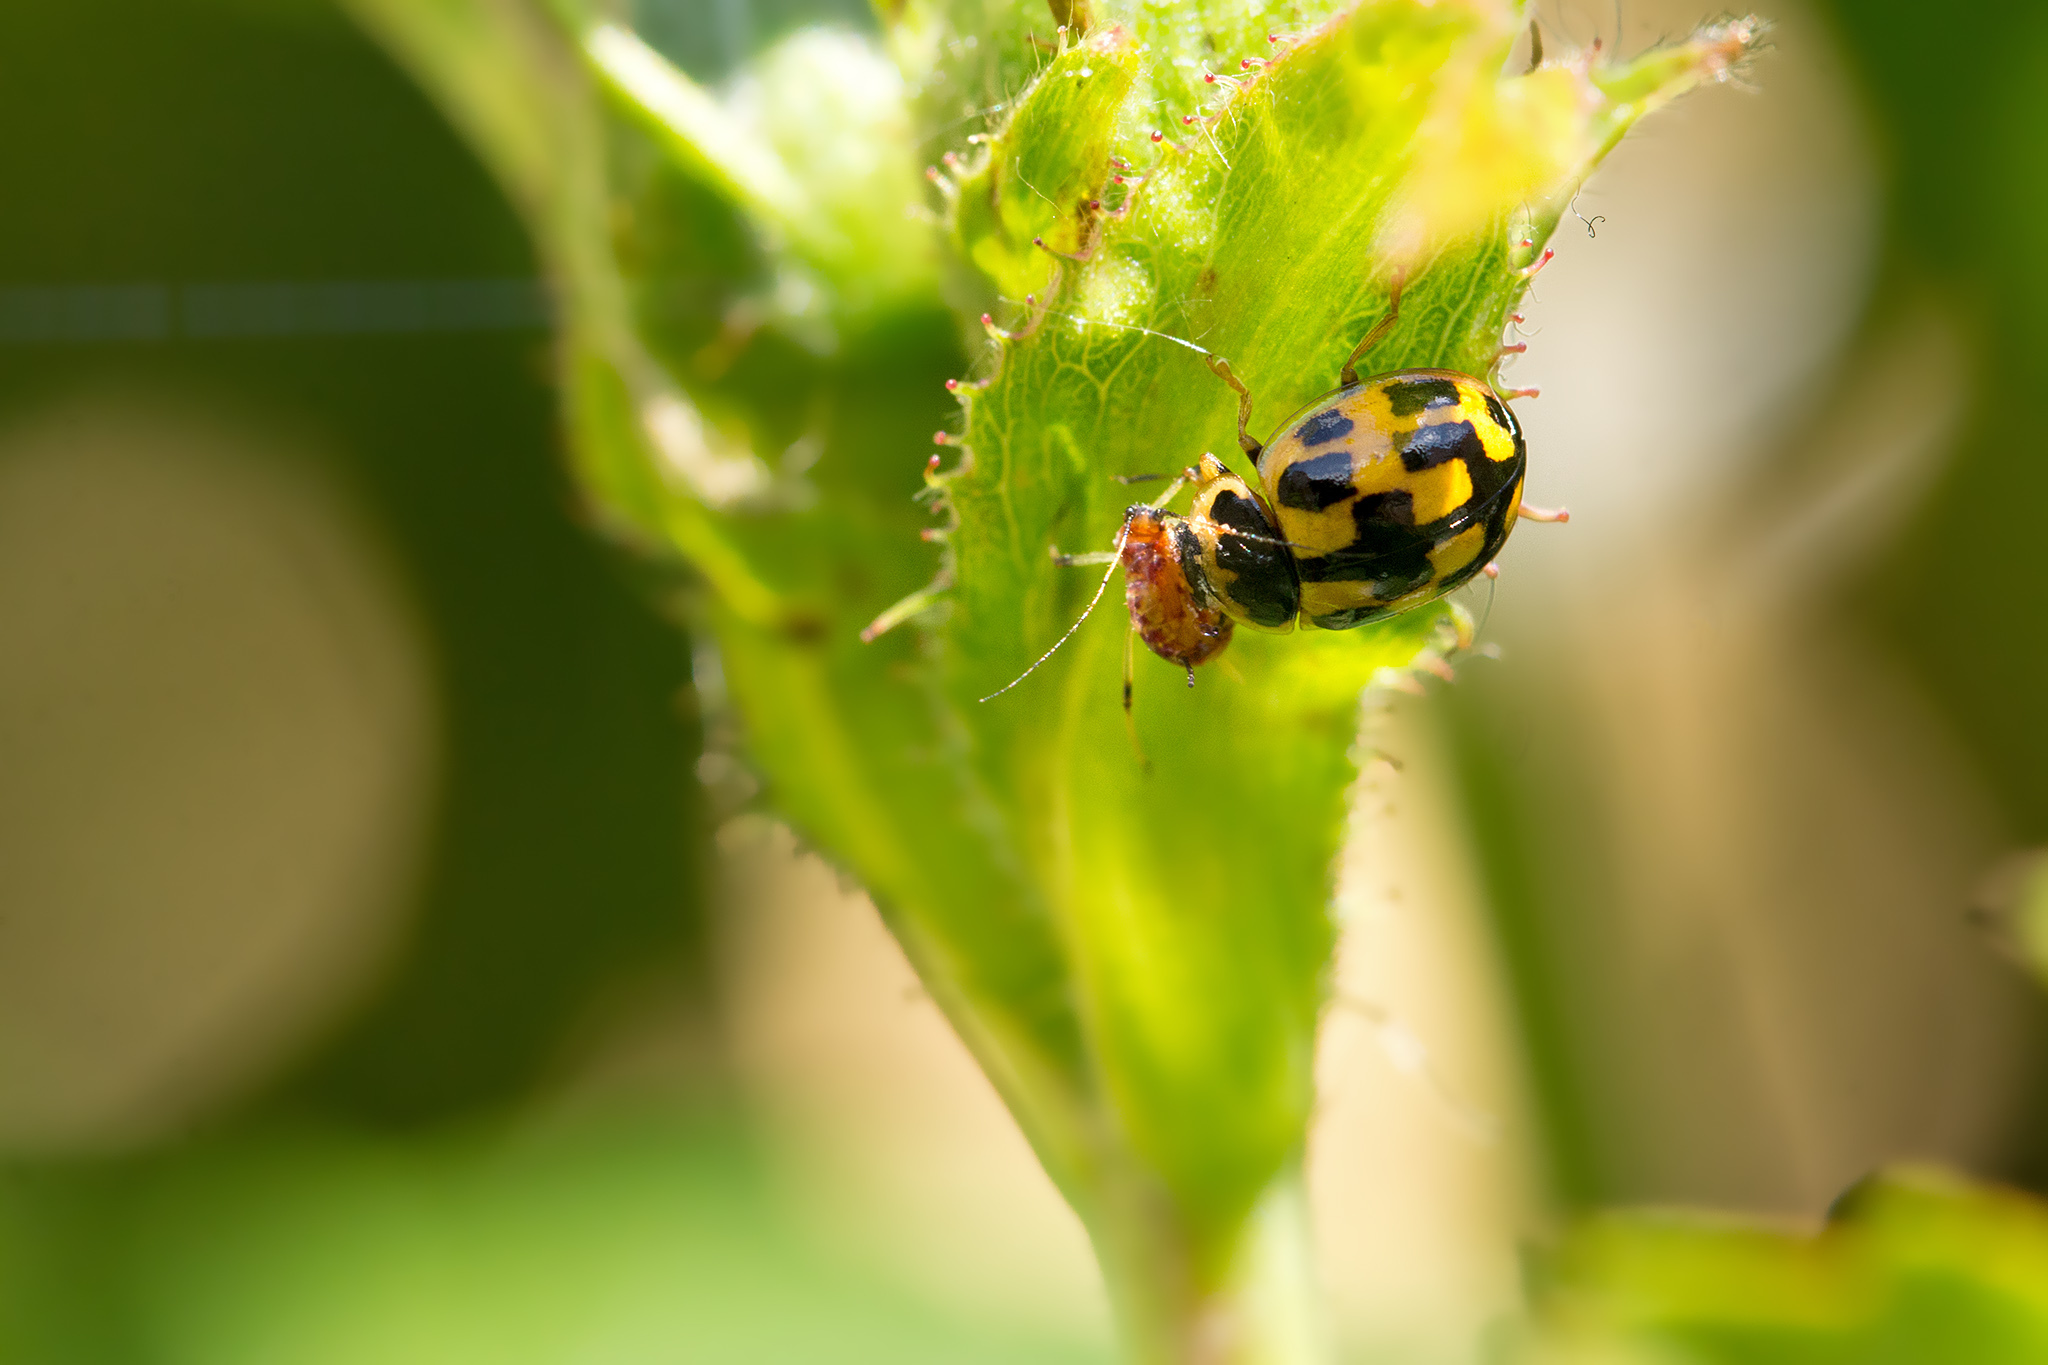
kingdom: Animalia
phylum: Arthropoda
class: Insecta
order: Coleoptera
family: Coccinellidae
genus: Propylaea
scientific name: Propylaea quatuordecimpunctata
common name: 14-spotted ladybird beetle
